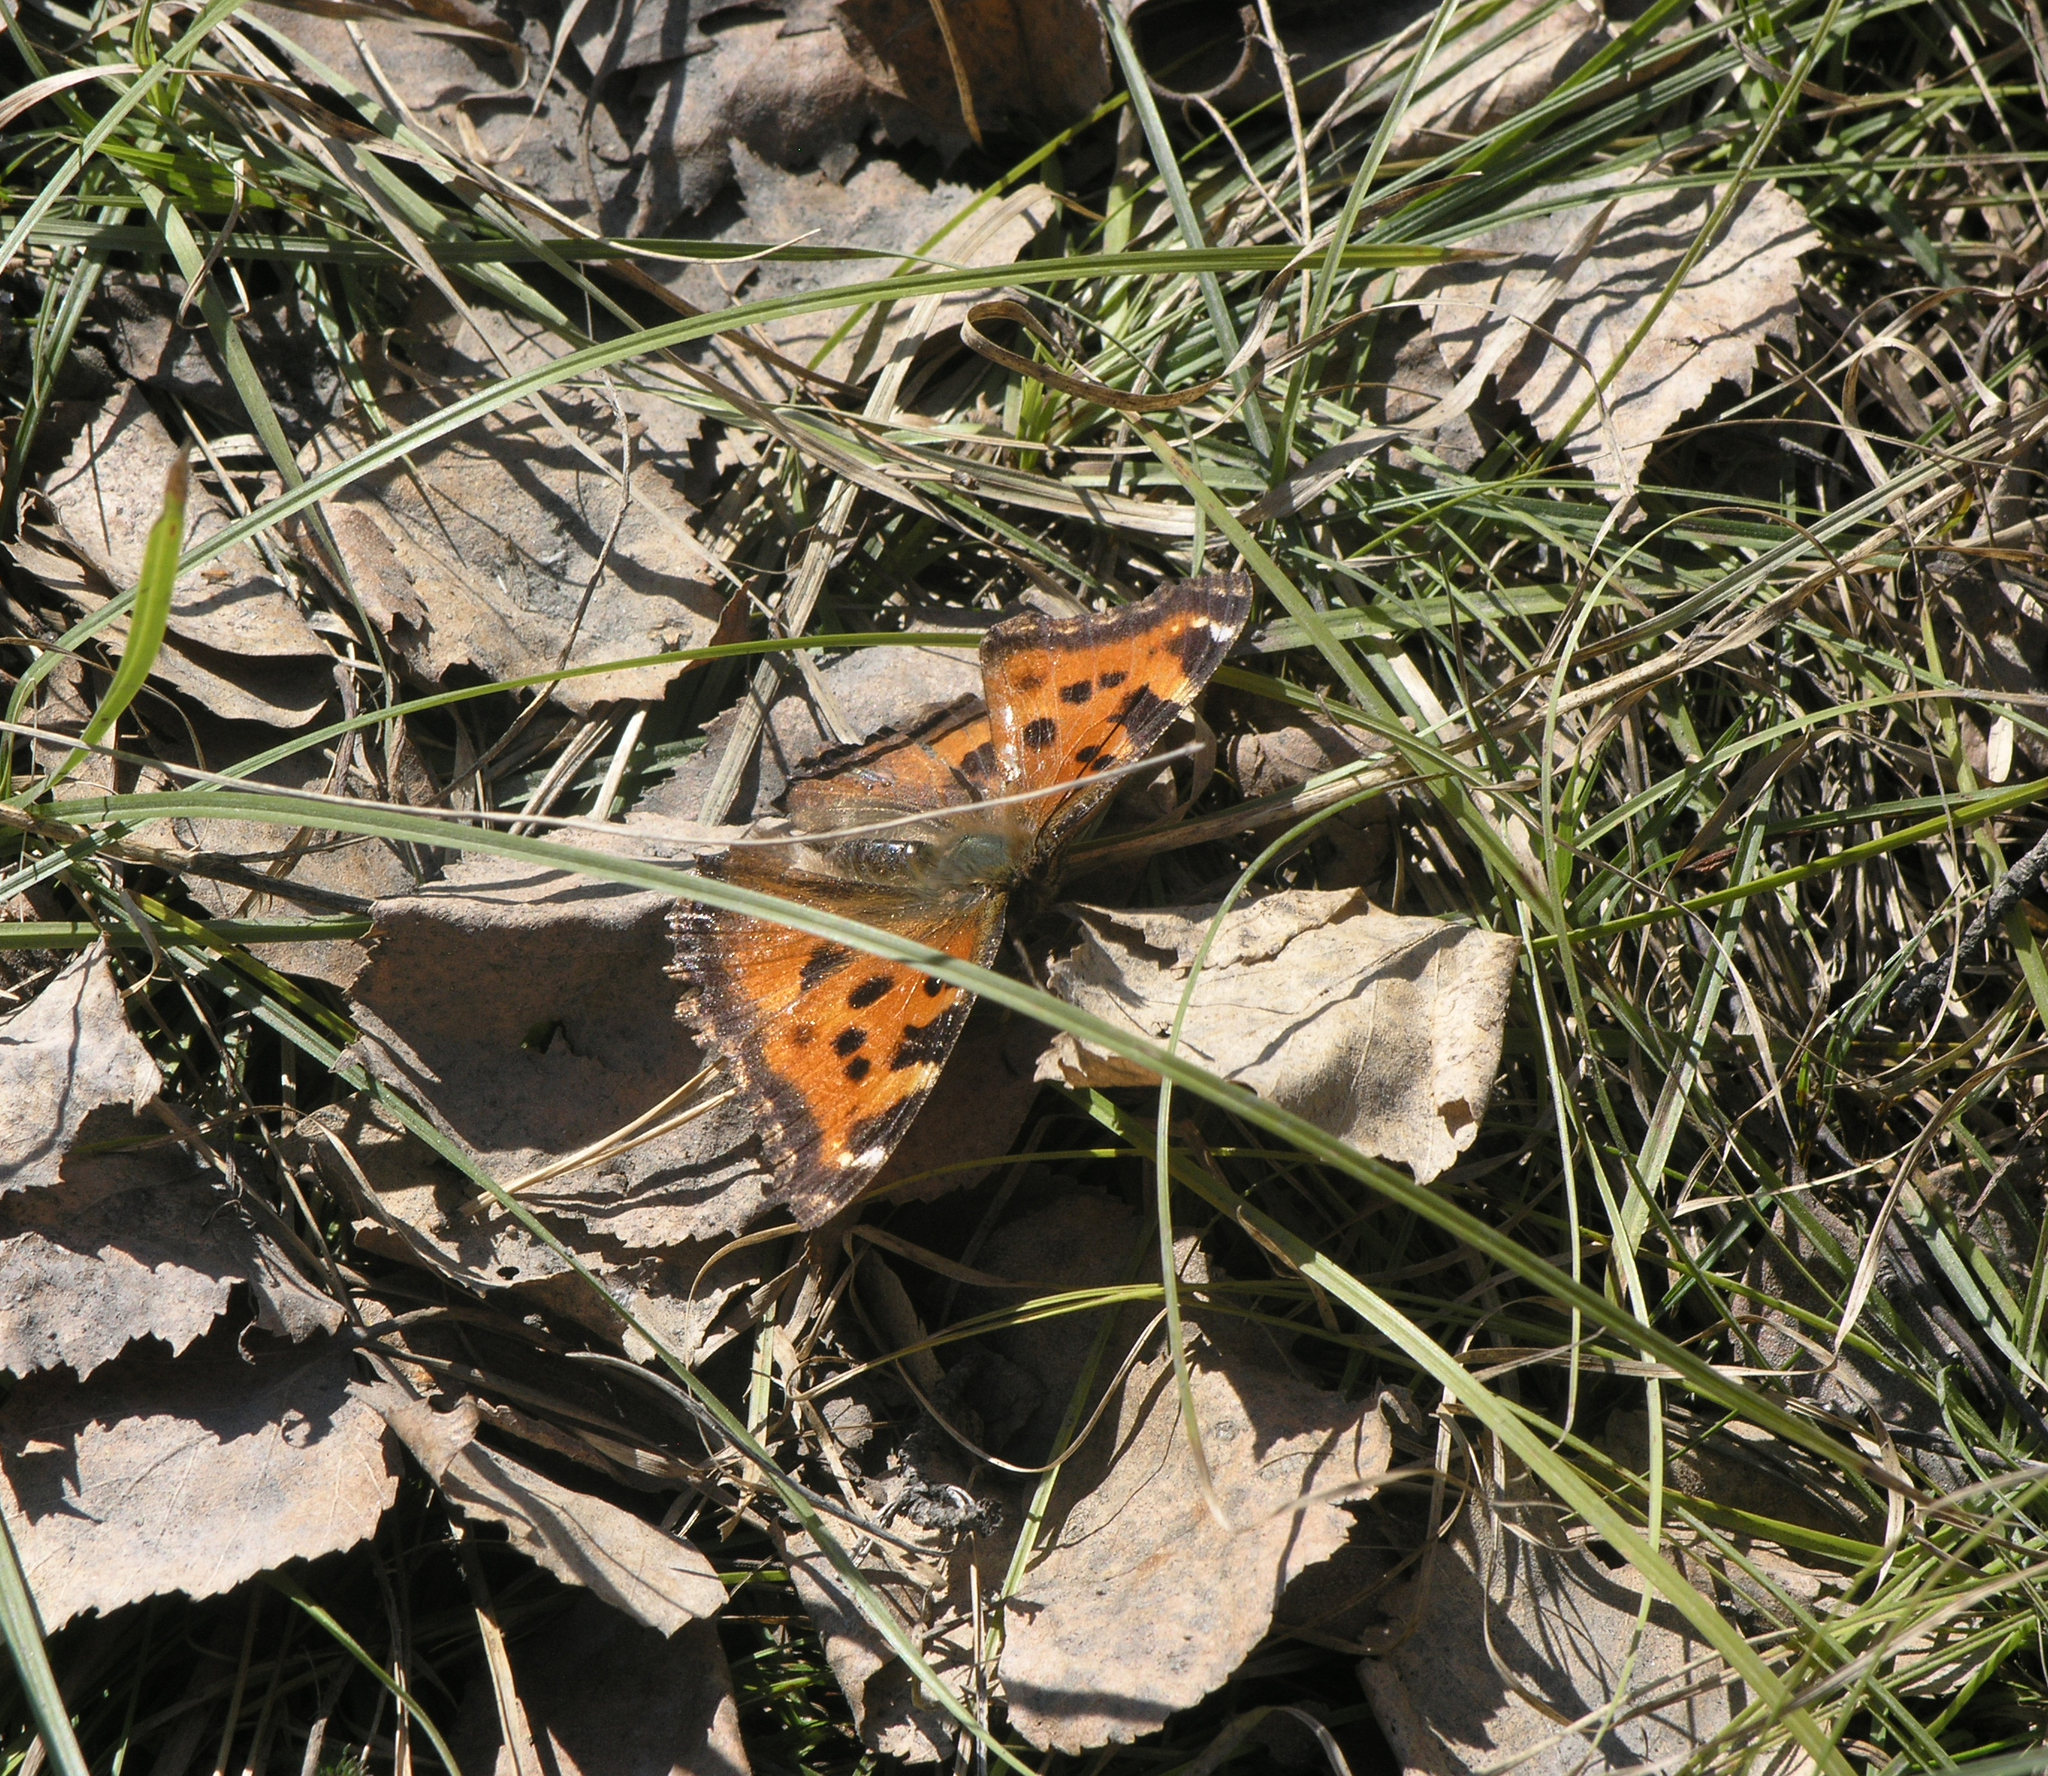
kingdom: Animalia
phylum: Arthropoda
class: Insecta
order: Lepidoptera
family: Nymphalidae
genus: Nymphalis
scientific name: Nymphalis xanthomelas
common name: Scarce tortoiseshell
